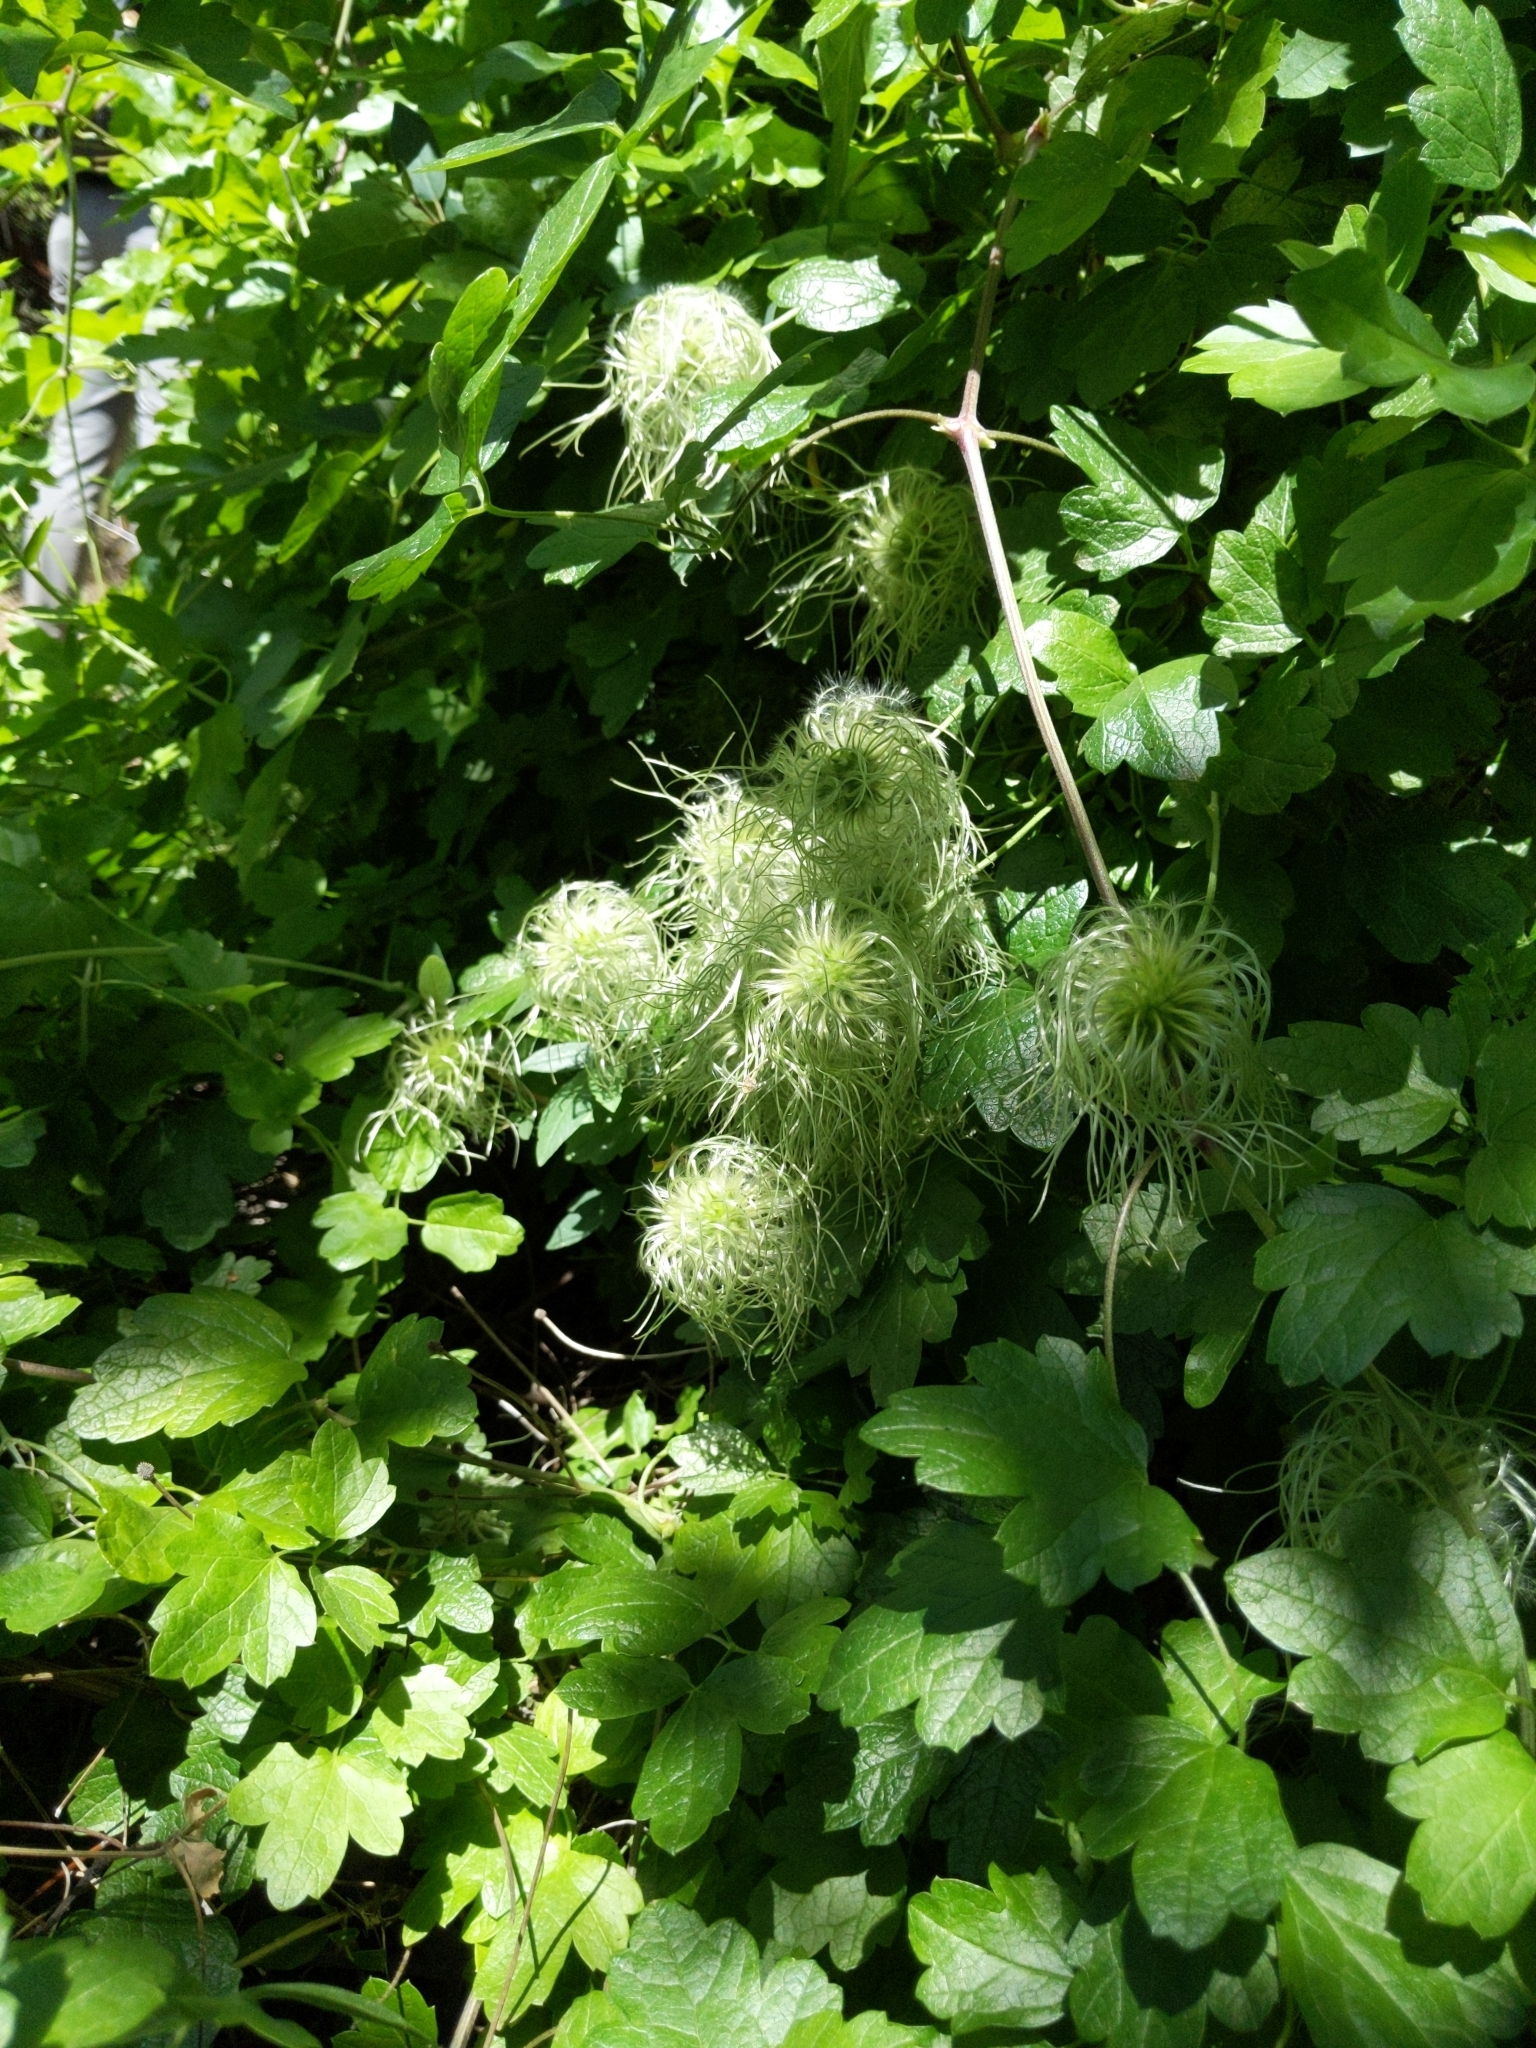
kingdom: Plantae
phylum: Tracheophyta
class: Magnoliopsida
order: Ranunculales
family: Ranunculaceae
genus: Clematis
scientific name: Clematis lasiantha
